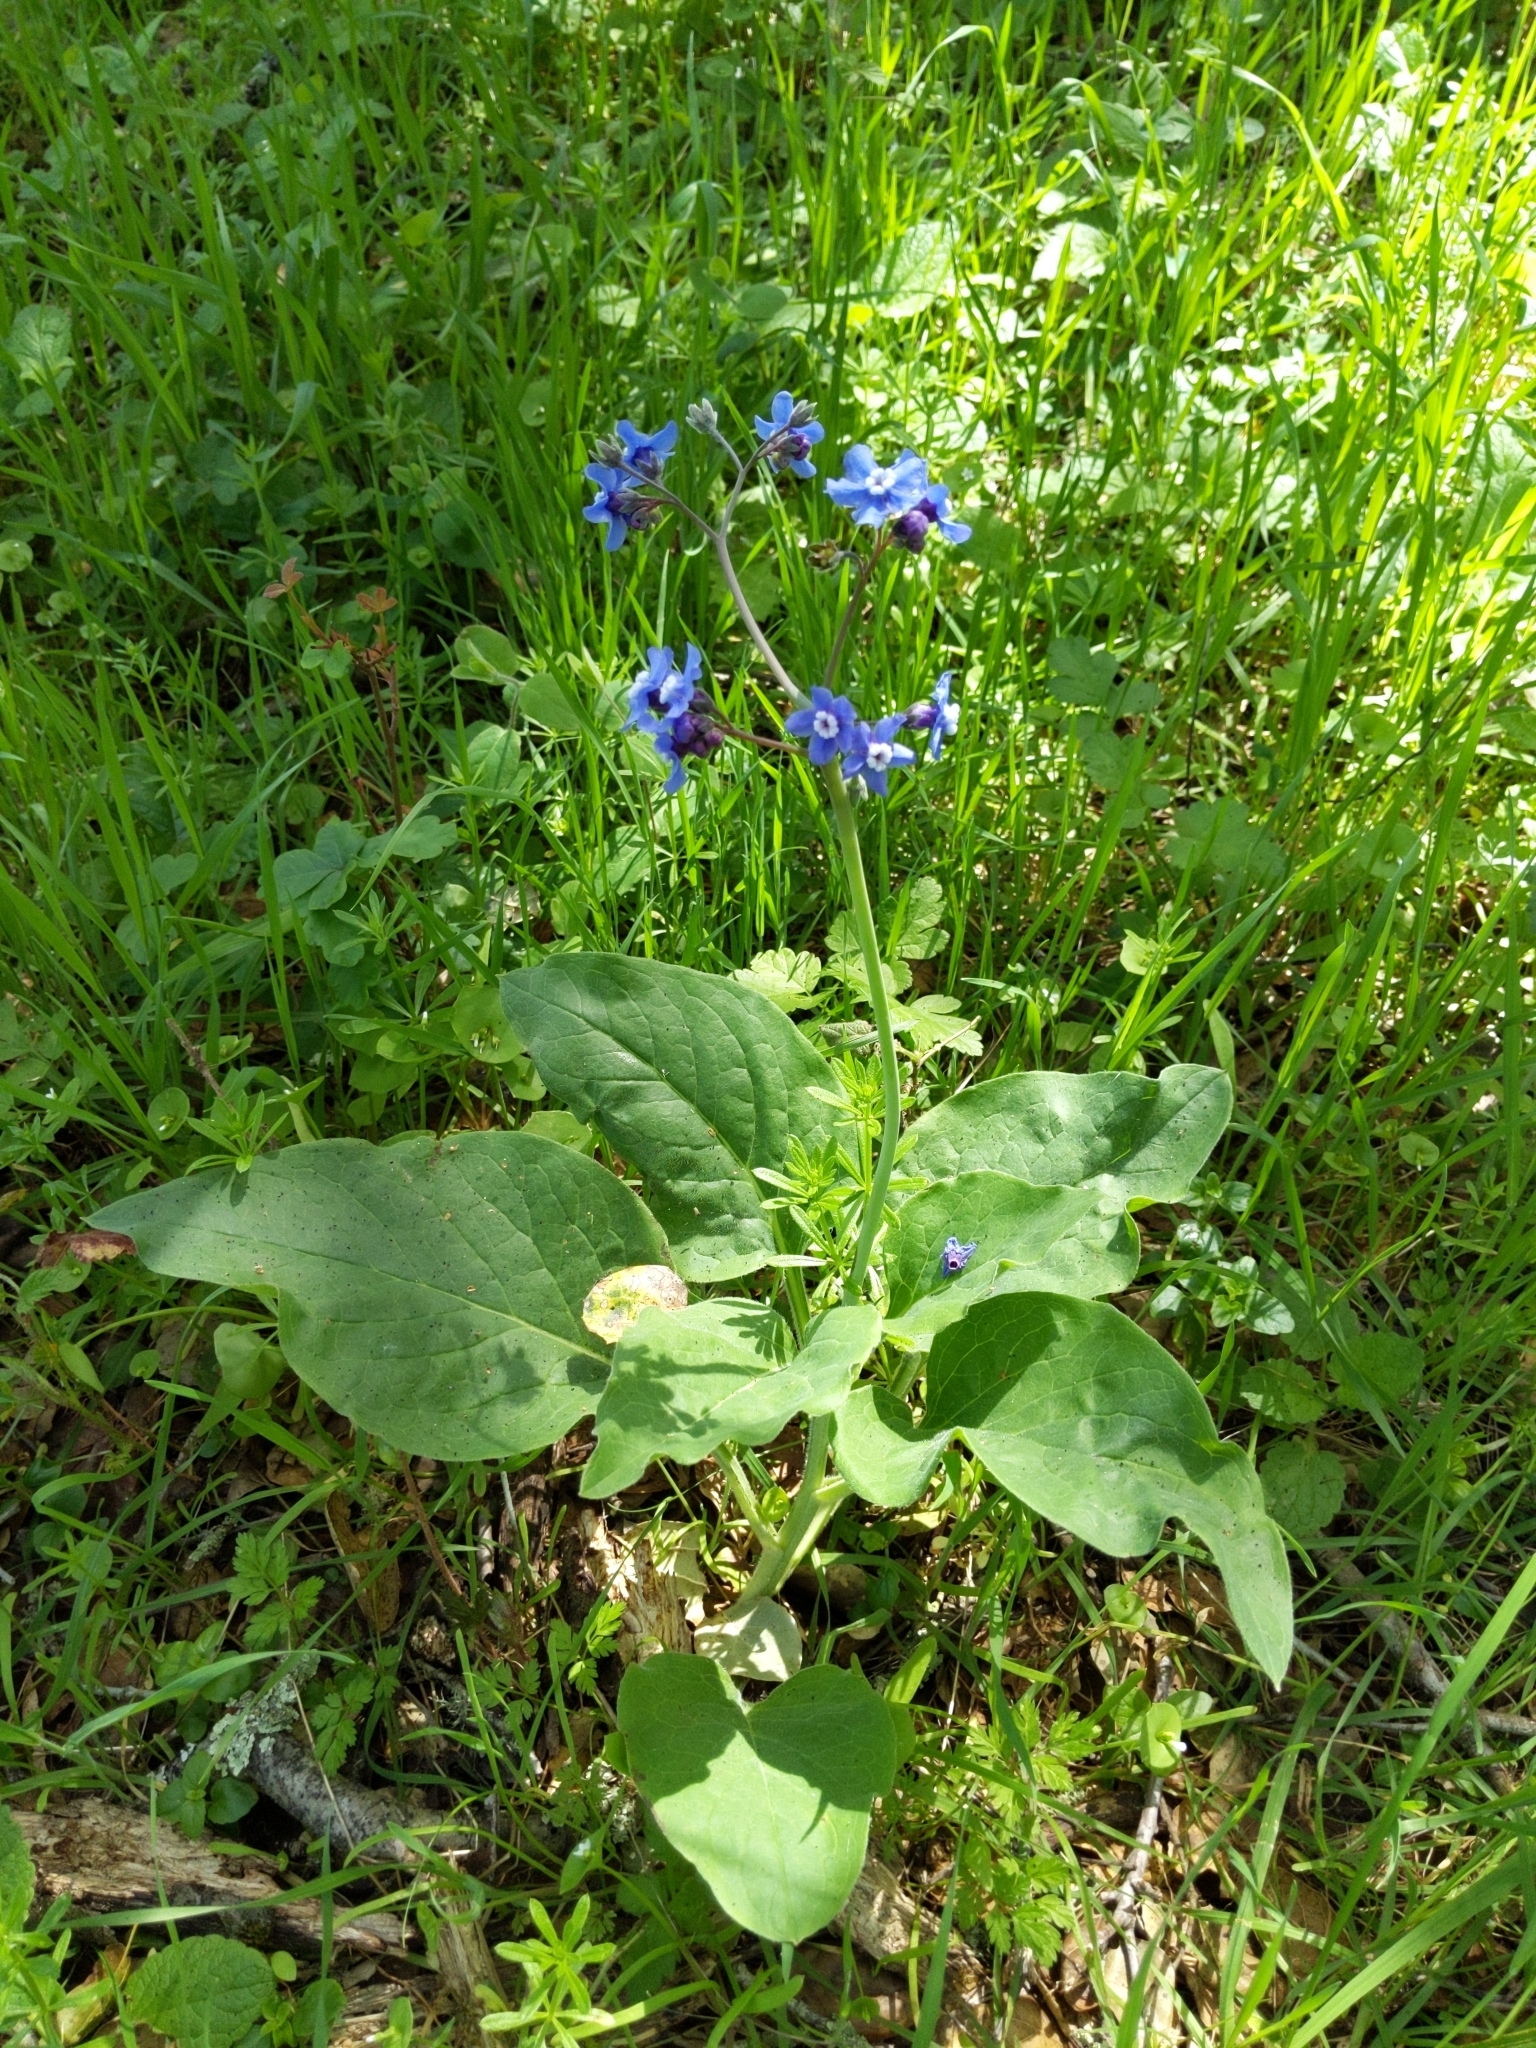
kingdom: Plantae
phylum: Tracheophyta
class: Magnoliopsida
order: Boraginales
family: Boraginaceae
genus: Adelinia
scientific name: Adelinia grande
